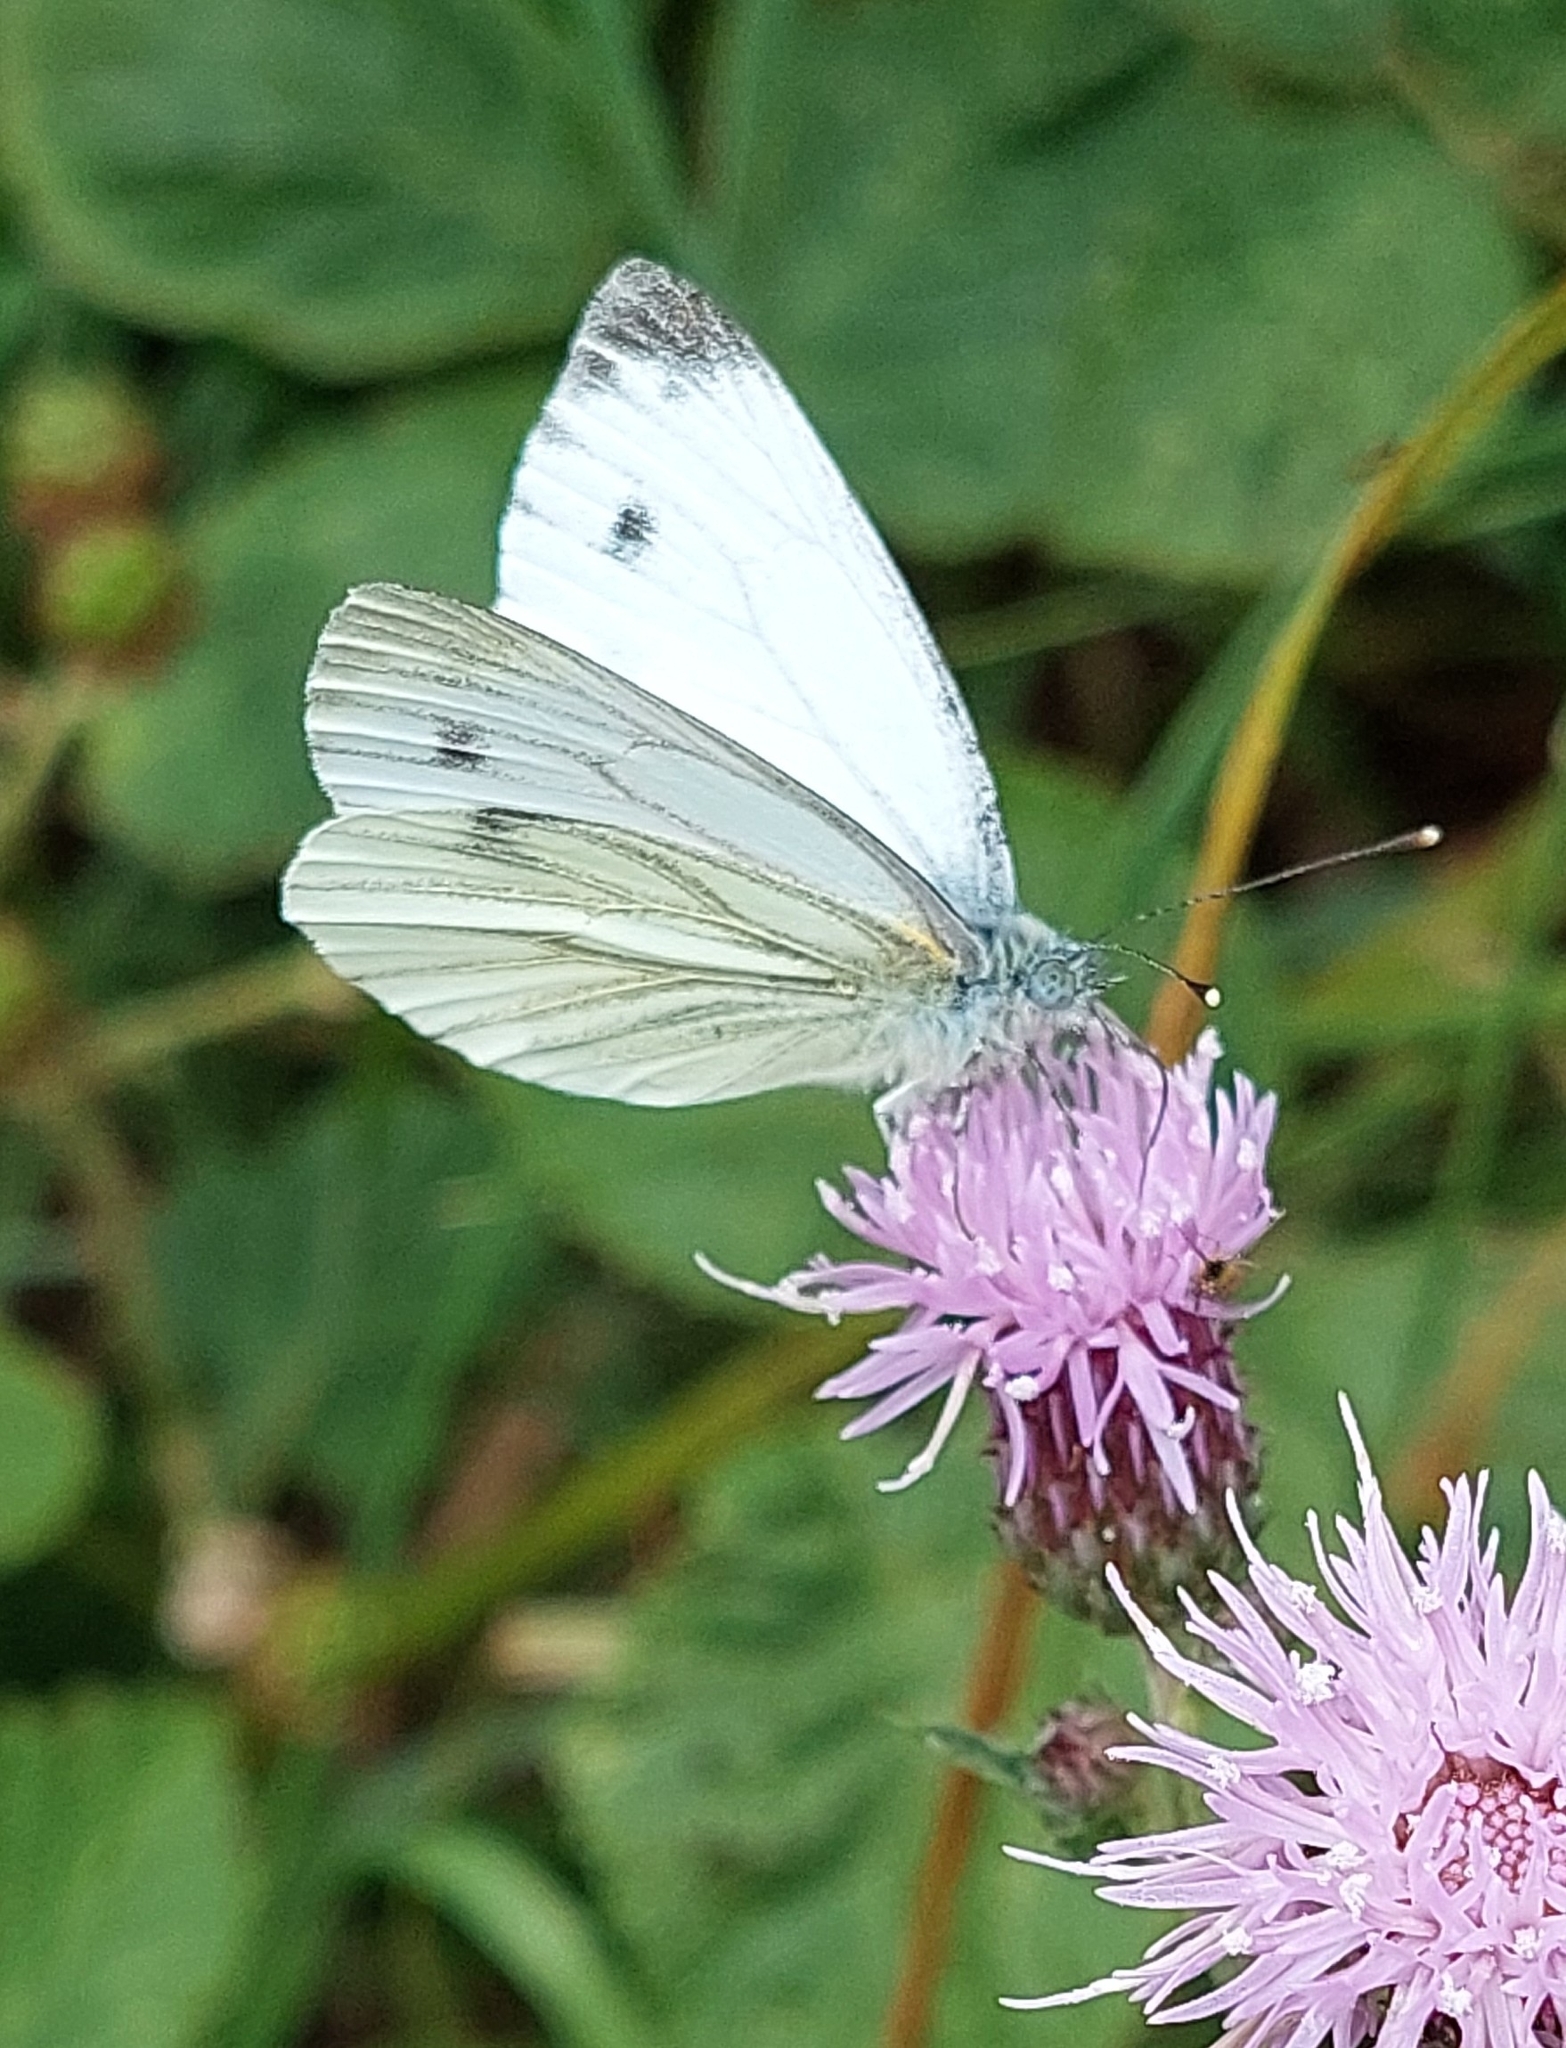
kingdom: Animalia
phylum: Arthropoda
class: Insecta
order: Lepidoptera
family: Pieridae
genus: Pieris
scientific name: Pieris napi
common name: Green-veined white
